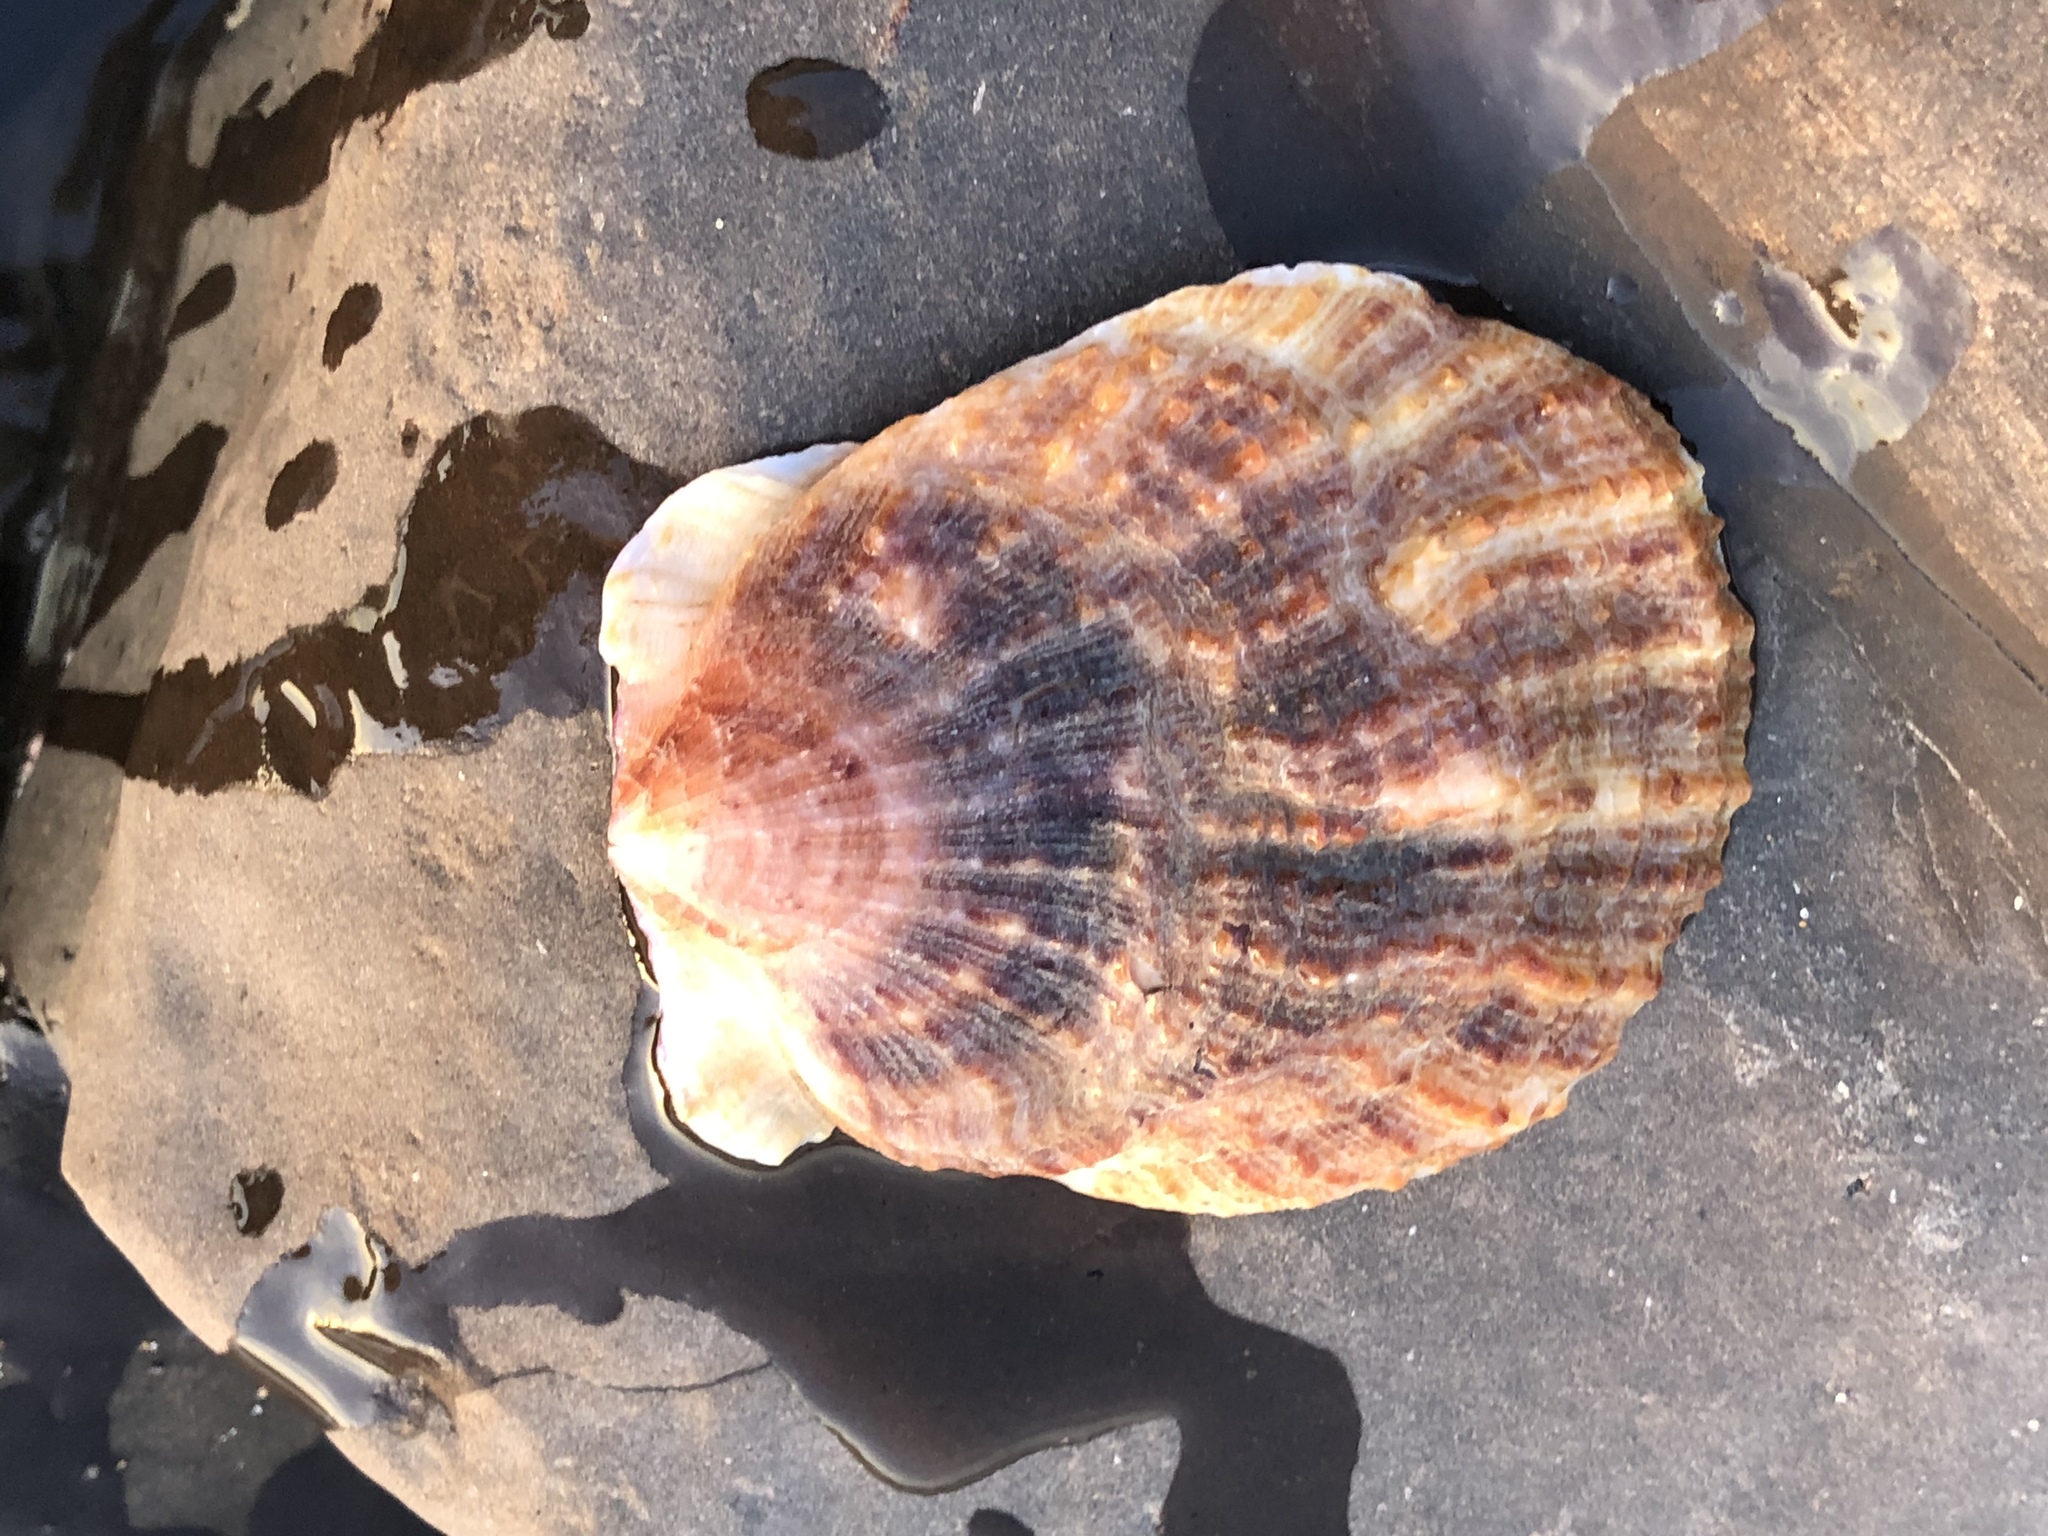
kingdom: Animalia
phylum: Mollusca
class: Bivalvia
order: Pectinida
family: Pectinidae
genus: Crassadoma
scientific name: Crassadoma gigantea
